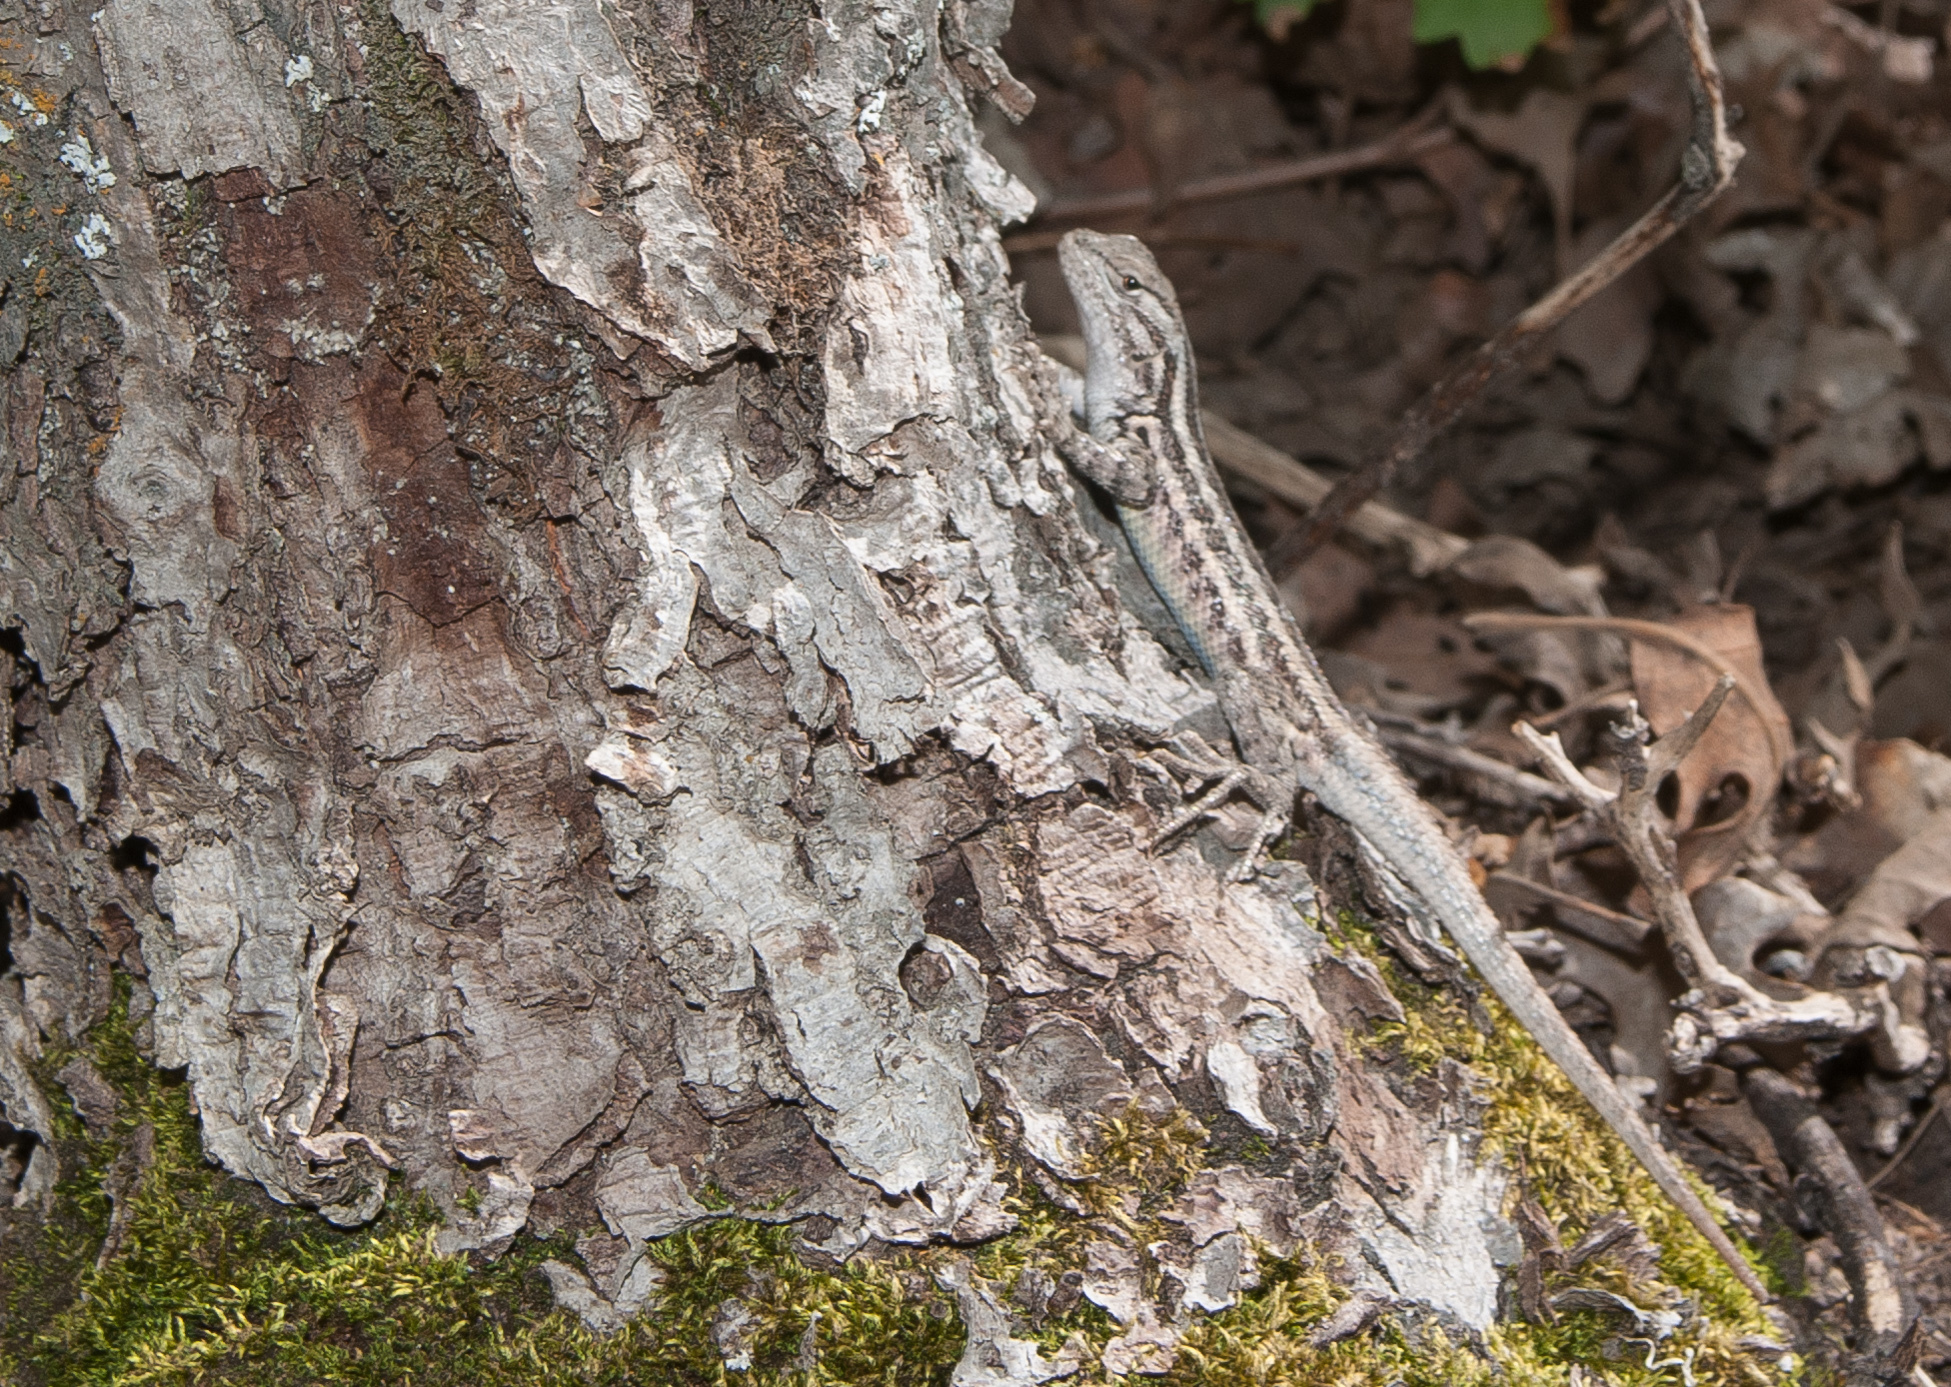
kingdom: Animalia
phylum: Chordata
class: Squamata
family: Phrynosomatidae
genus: Sceloporus
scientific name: Sceloporus graciosus
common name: Sagebrush lizard
